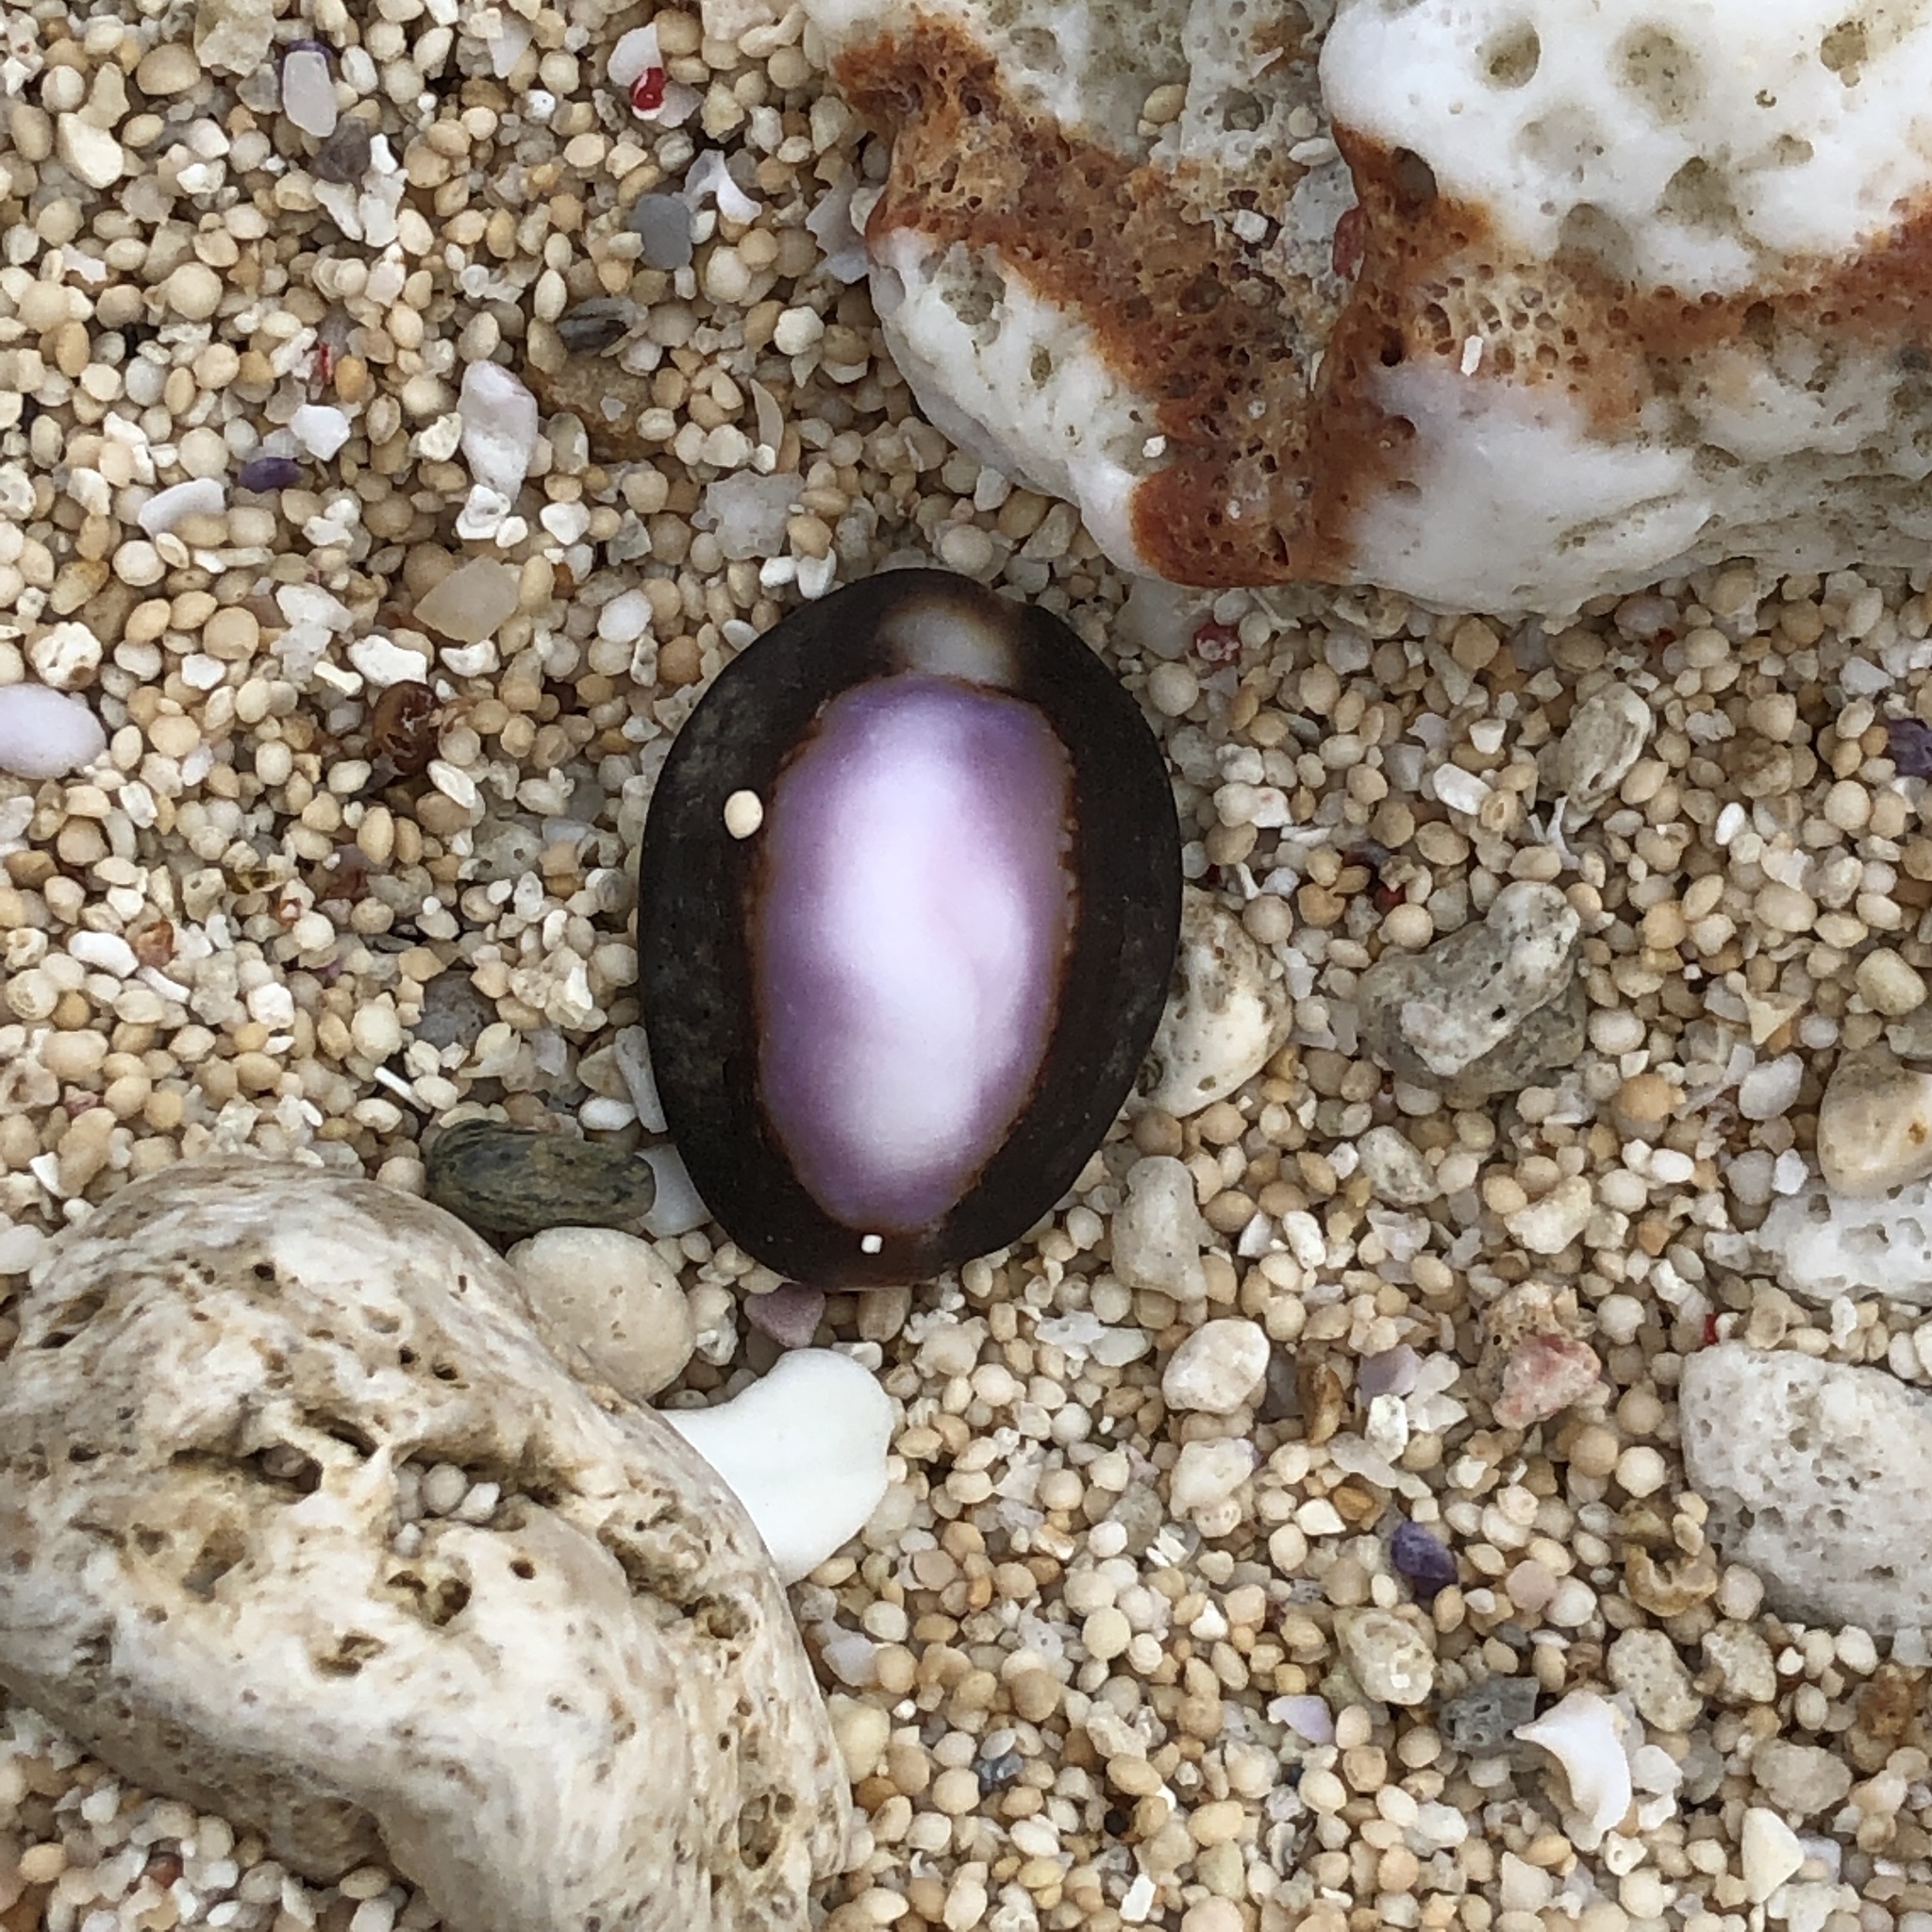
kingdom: Animalia
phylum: Mollusca
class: Gastropoda
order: Littorinimorpha
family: Cypraeidae
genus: Monetaria
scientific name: Monetaria caputserpentis
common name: Serpent's head cowrie
